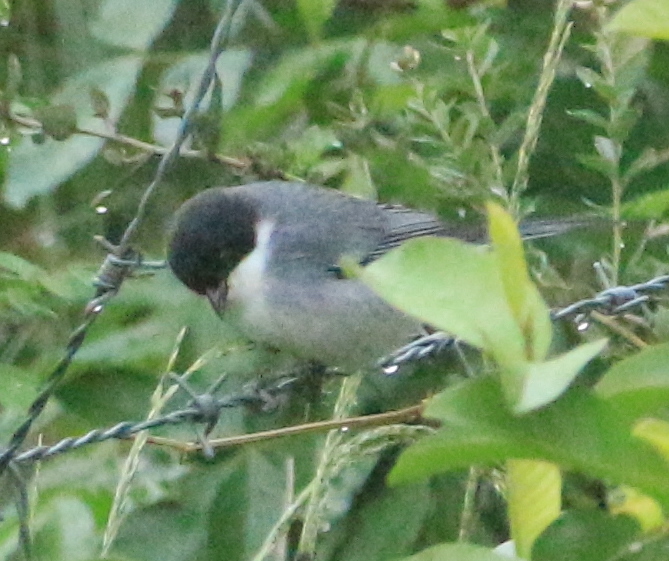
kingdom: Animalia
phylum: Chordata
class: Aves
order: Passeriformes
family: Thraupidae
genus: Microspingus
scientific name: Microspingus melanoleucus
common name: Black-capped warbling-finch
